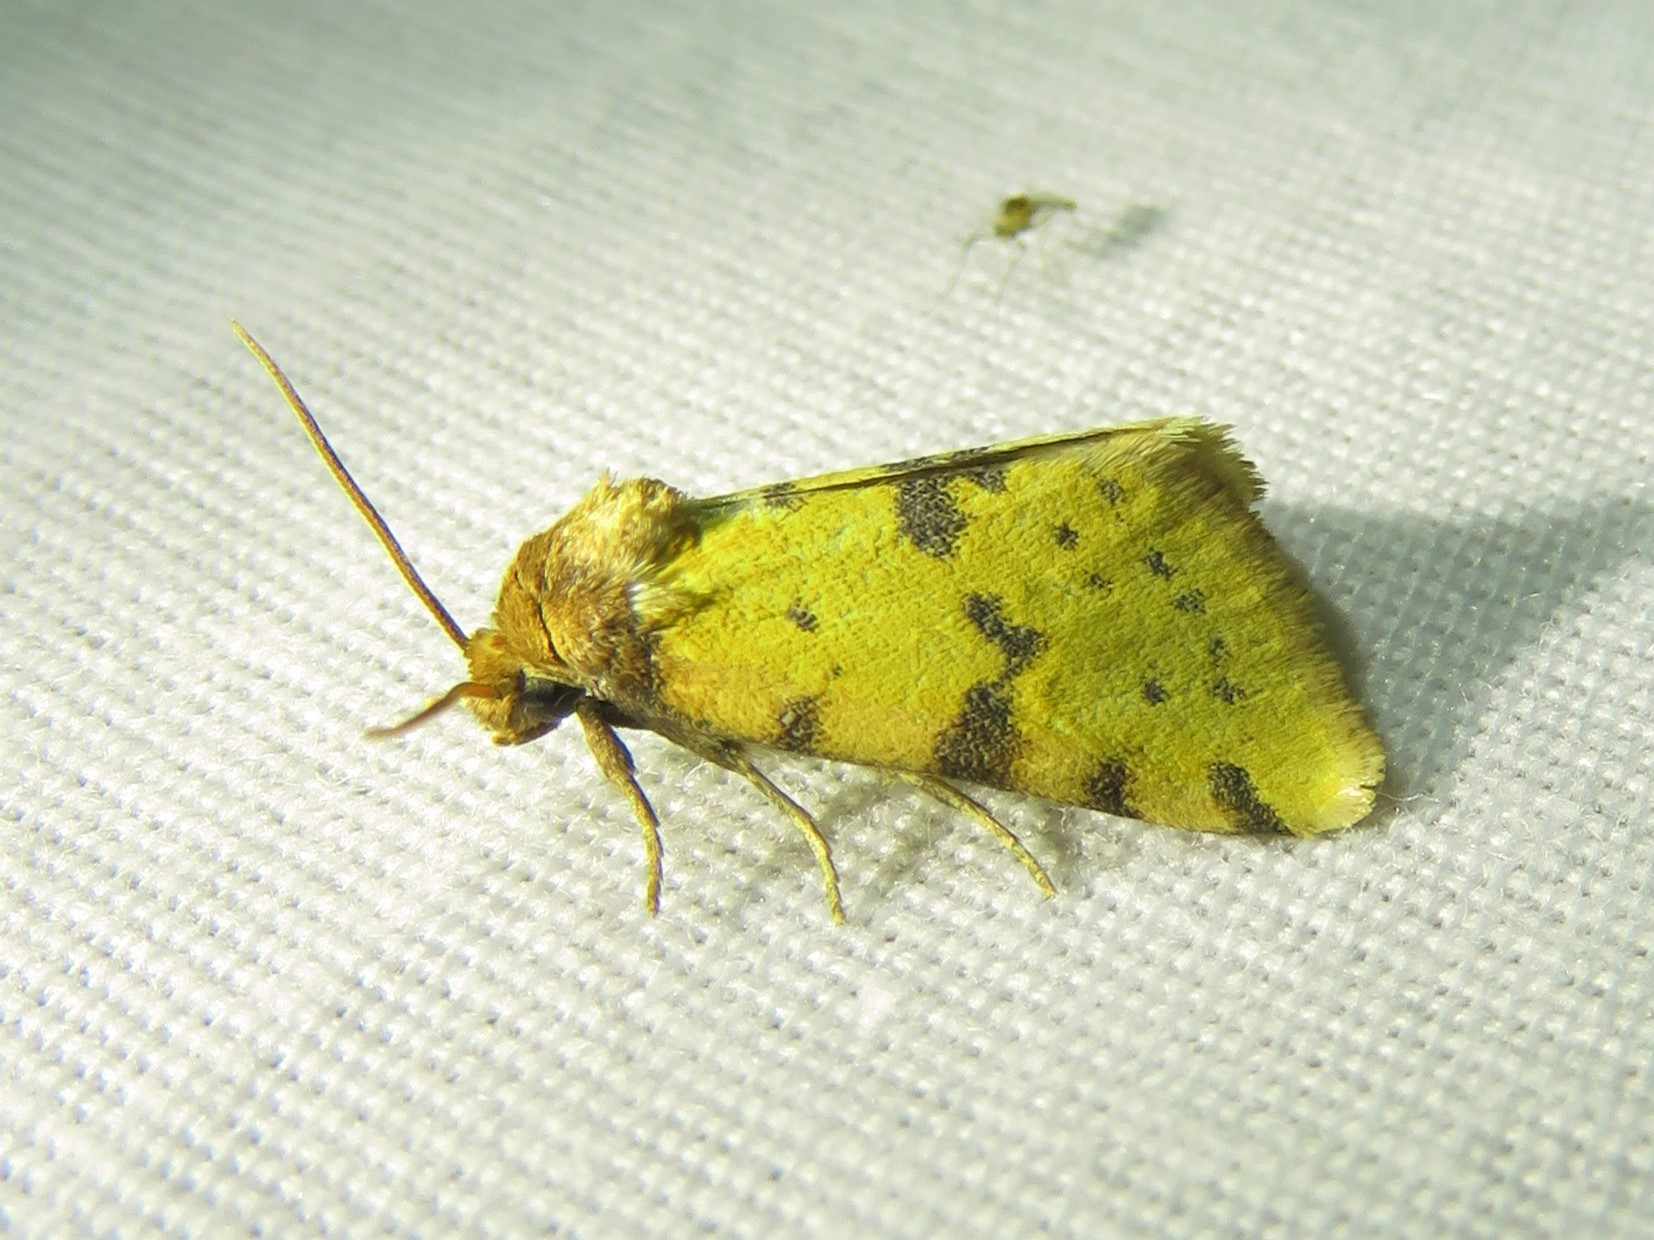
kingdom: Animalia
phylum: Arthropoda
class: Insecta
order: Lepidoptera
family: Noctuidae
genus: Azenia
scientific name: Azenia obtusa
